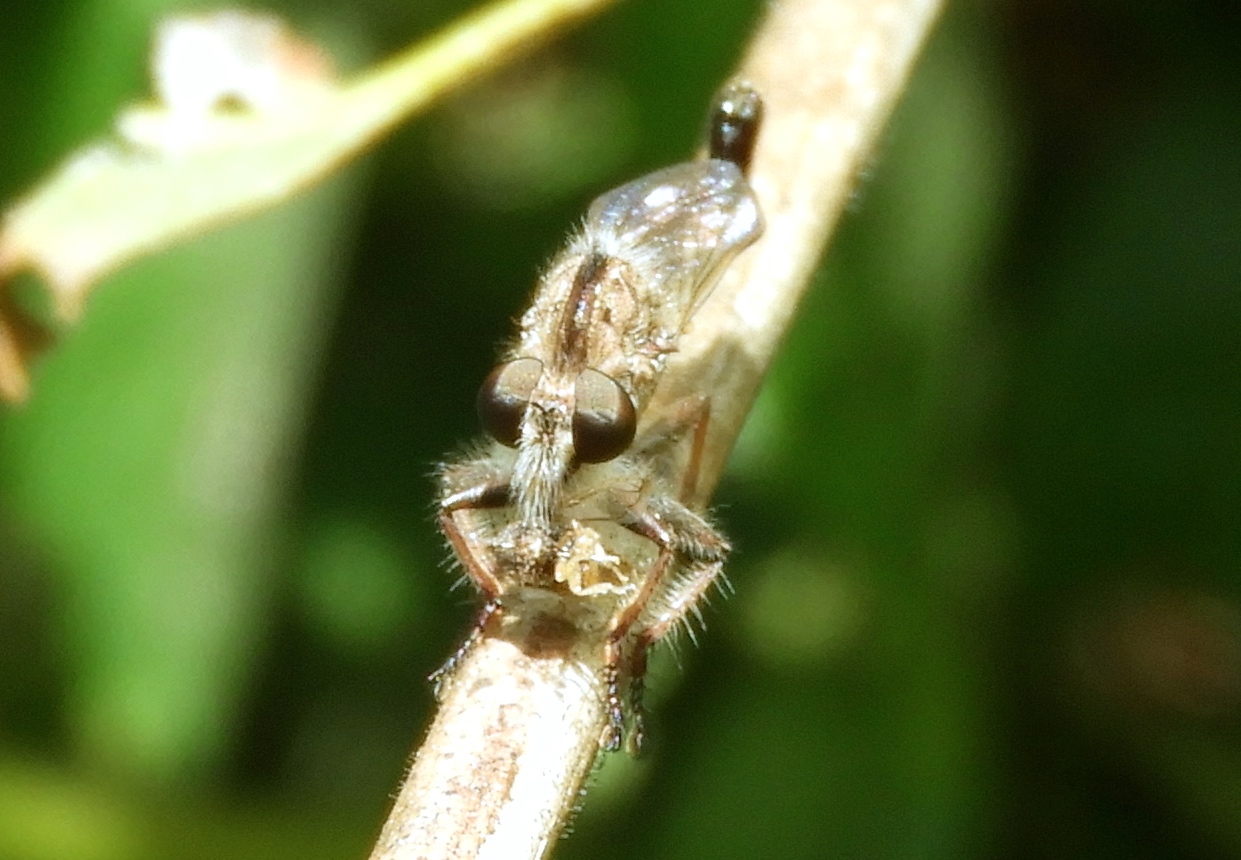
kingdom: Animalia
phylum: Arthropoda
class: Insecta
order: Diptera
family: Asilidae
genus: Efferia
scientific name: Efferia
